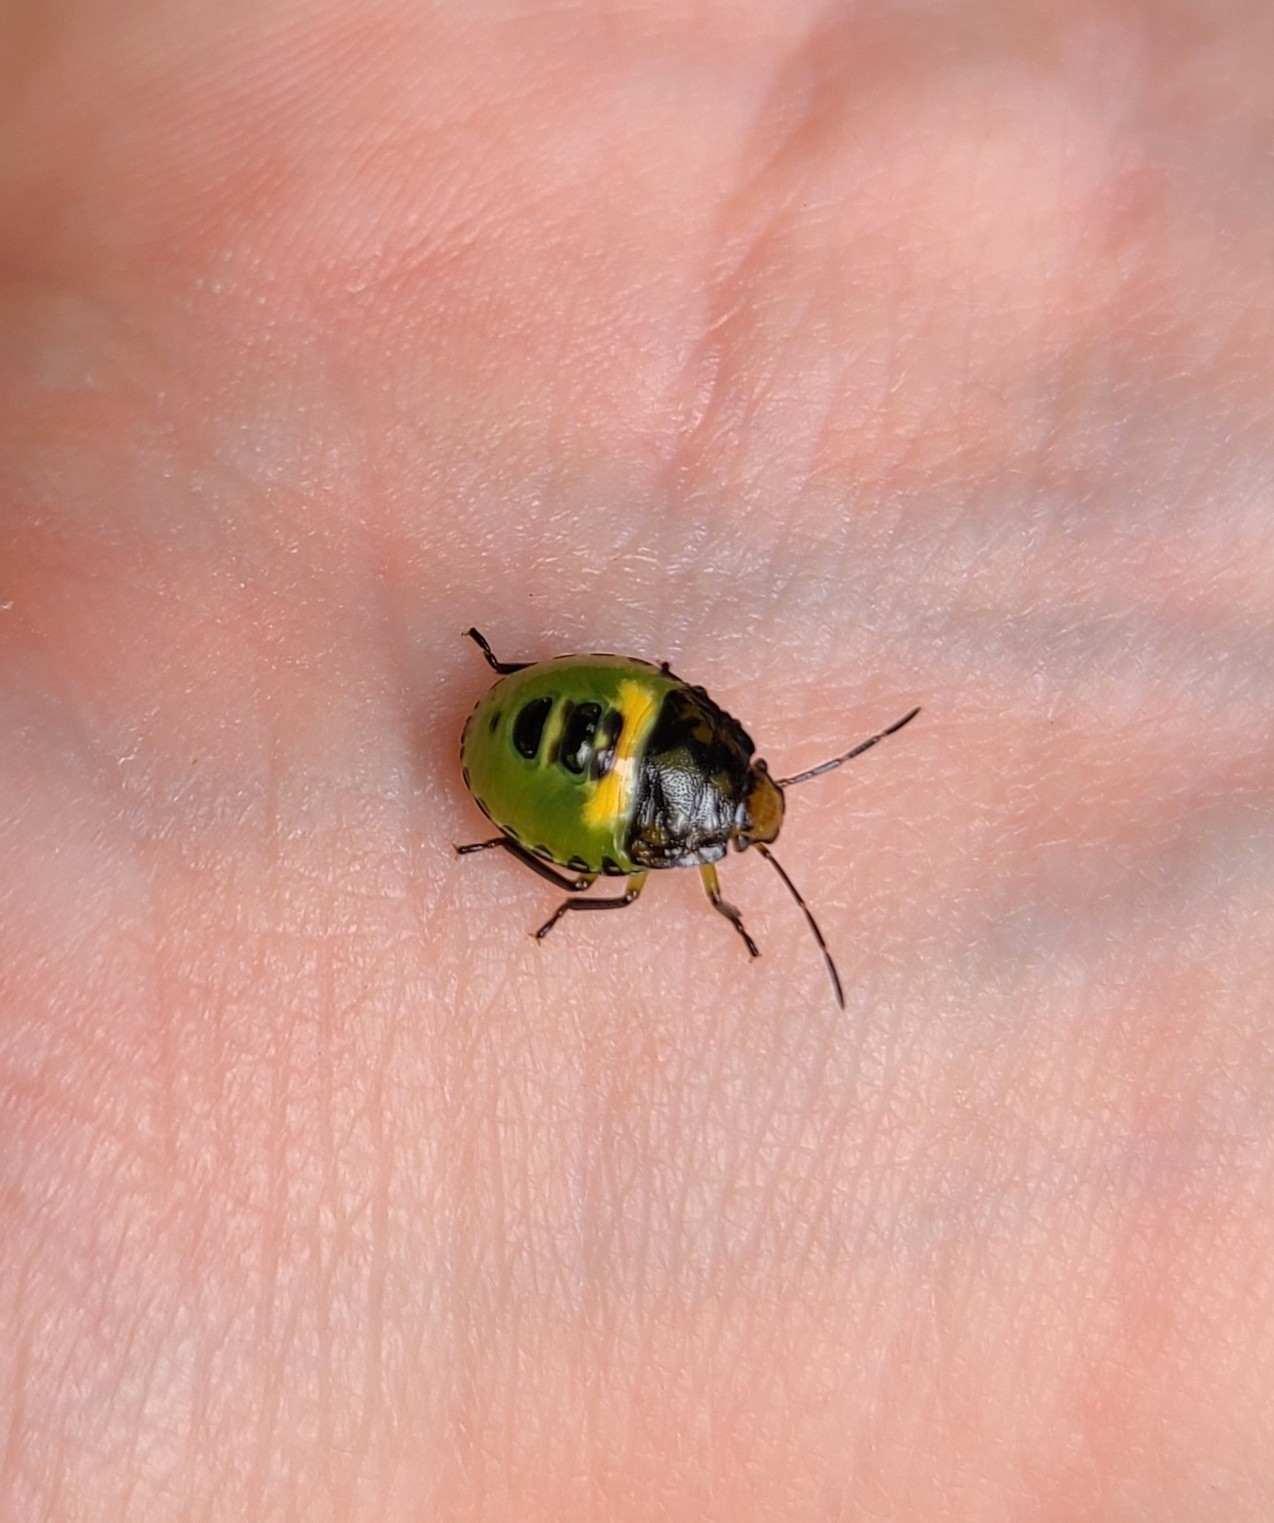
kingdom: Animalia
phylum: Arthropoda
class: Insecta
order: Hemiptera
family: Pentatomidae
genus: Glaucias
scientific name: Glaucias amyota
